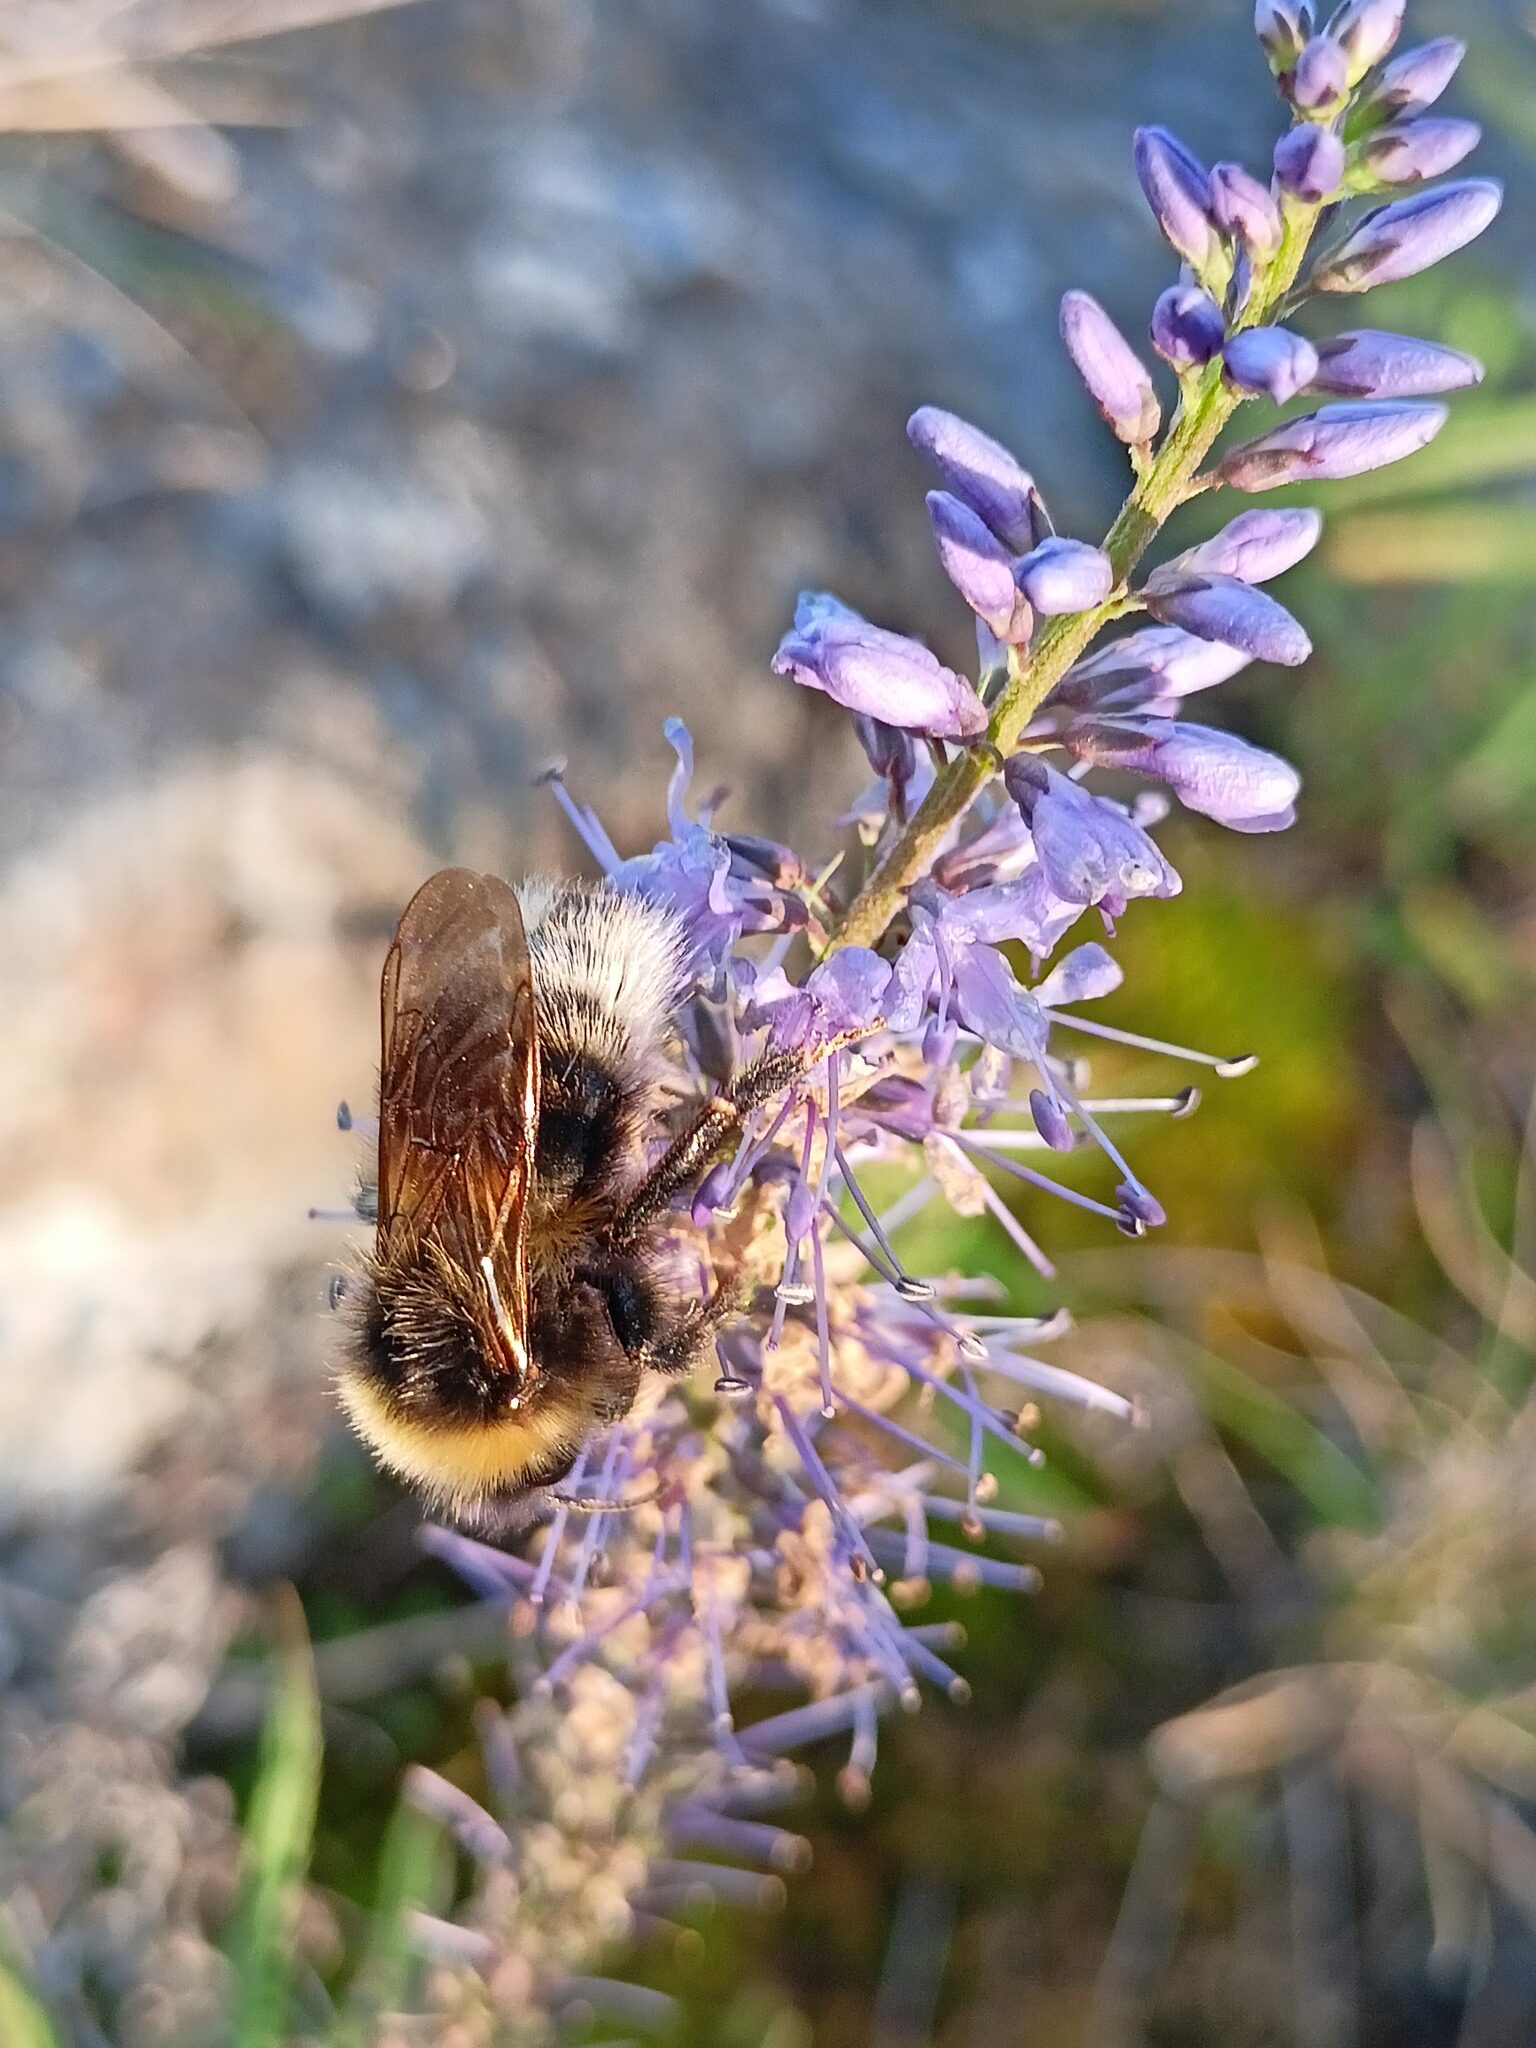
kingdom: Animalia
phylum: Arthropoda
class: Insecta
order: Hymenoptera
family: Apidae
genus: Bombus
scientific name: Bombus bohemicus
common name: Gypsy cuckoo bee
